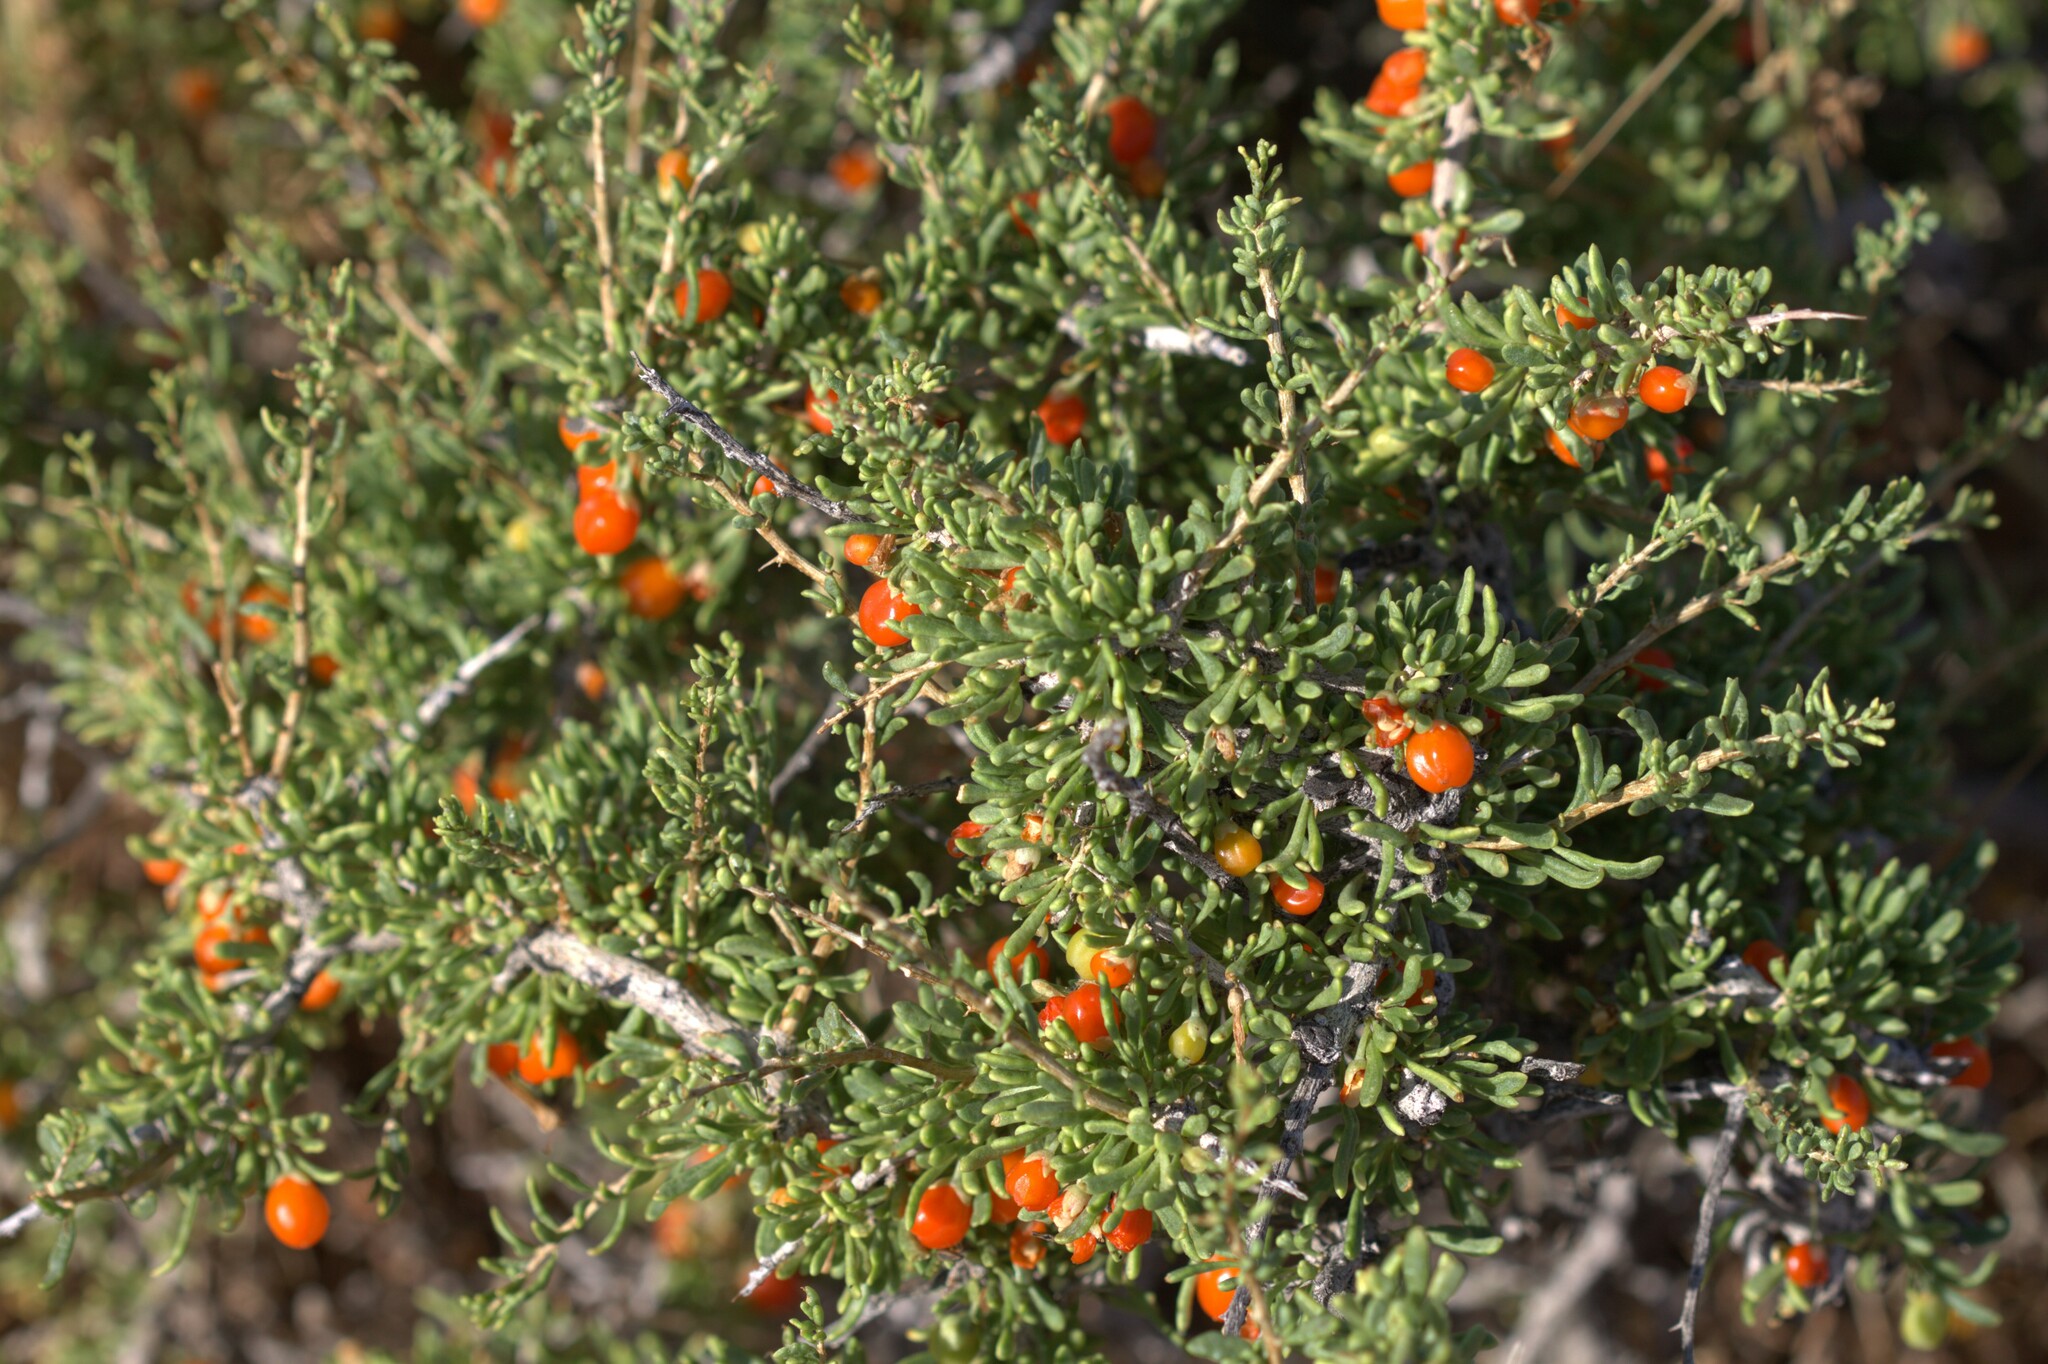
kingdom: Plantae
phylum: Tracheophyta
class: Magnoliopsida
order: Solanales
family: Solanaceae
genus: Lycium
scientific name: Lycium andersonii
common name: Water-jacket
